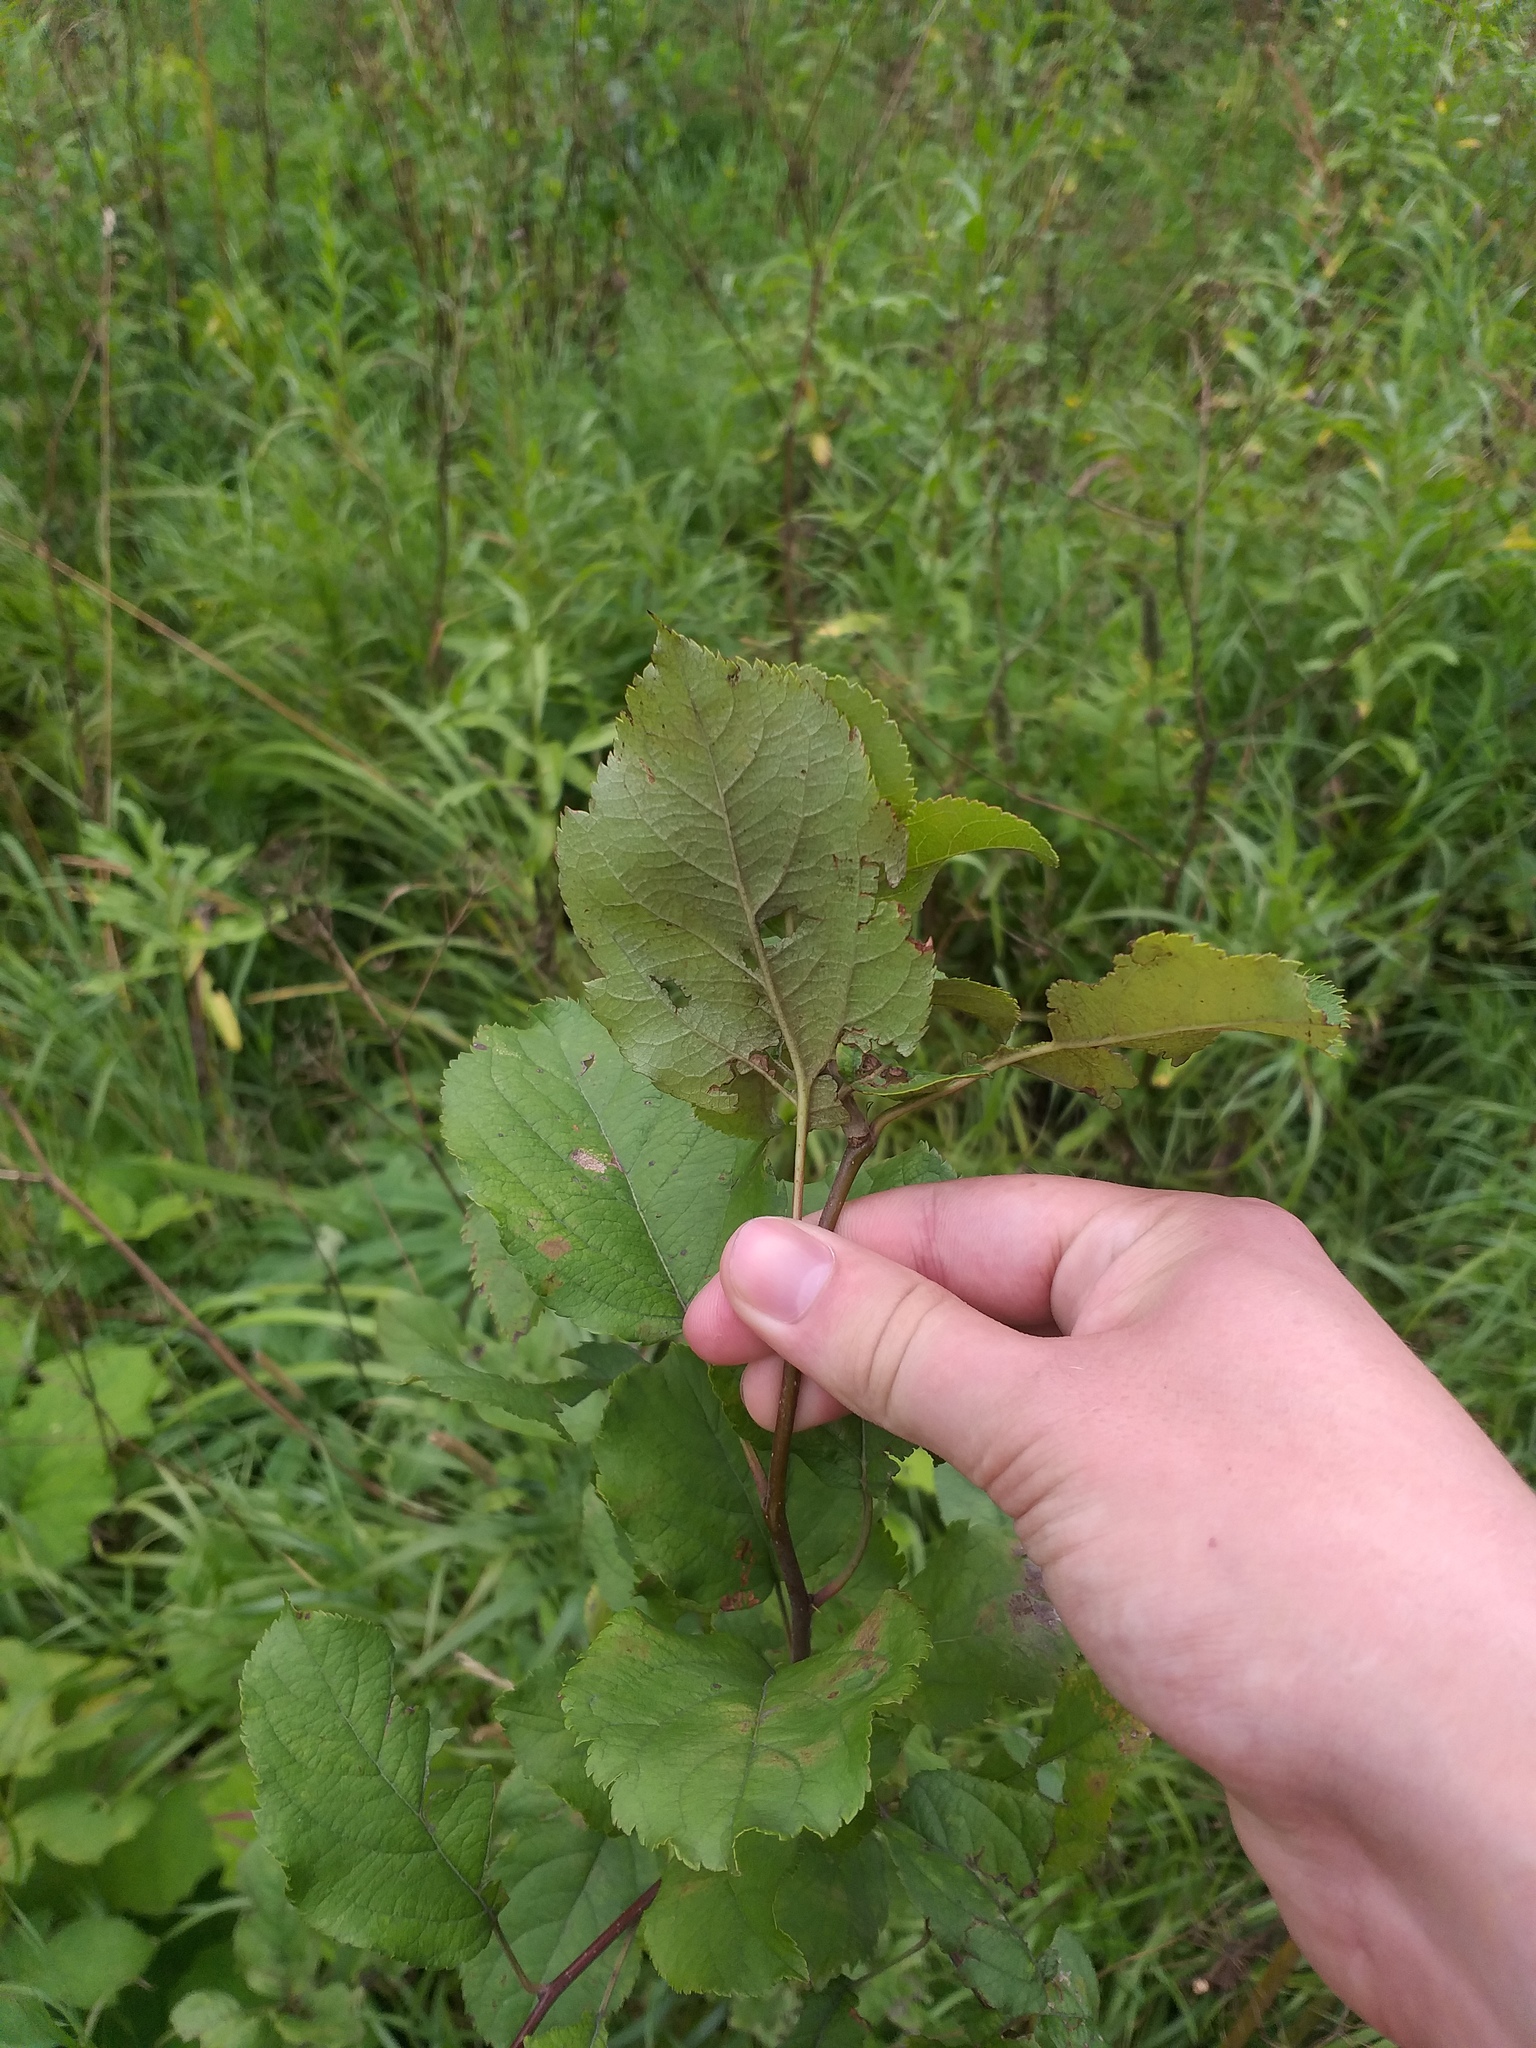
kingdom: Plantae
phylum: Tracheophyta
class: Magnoliopsida
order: Rosales
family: Rosaceae
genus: Malus
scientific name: Malus domestica
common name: Apple
